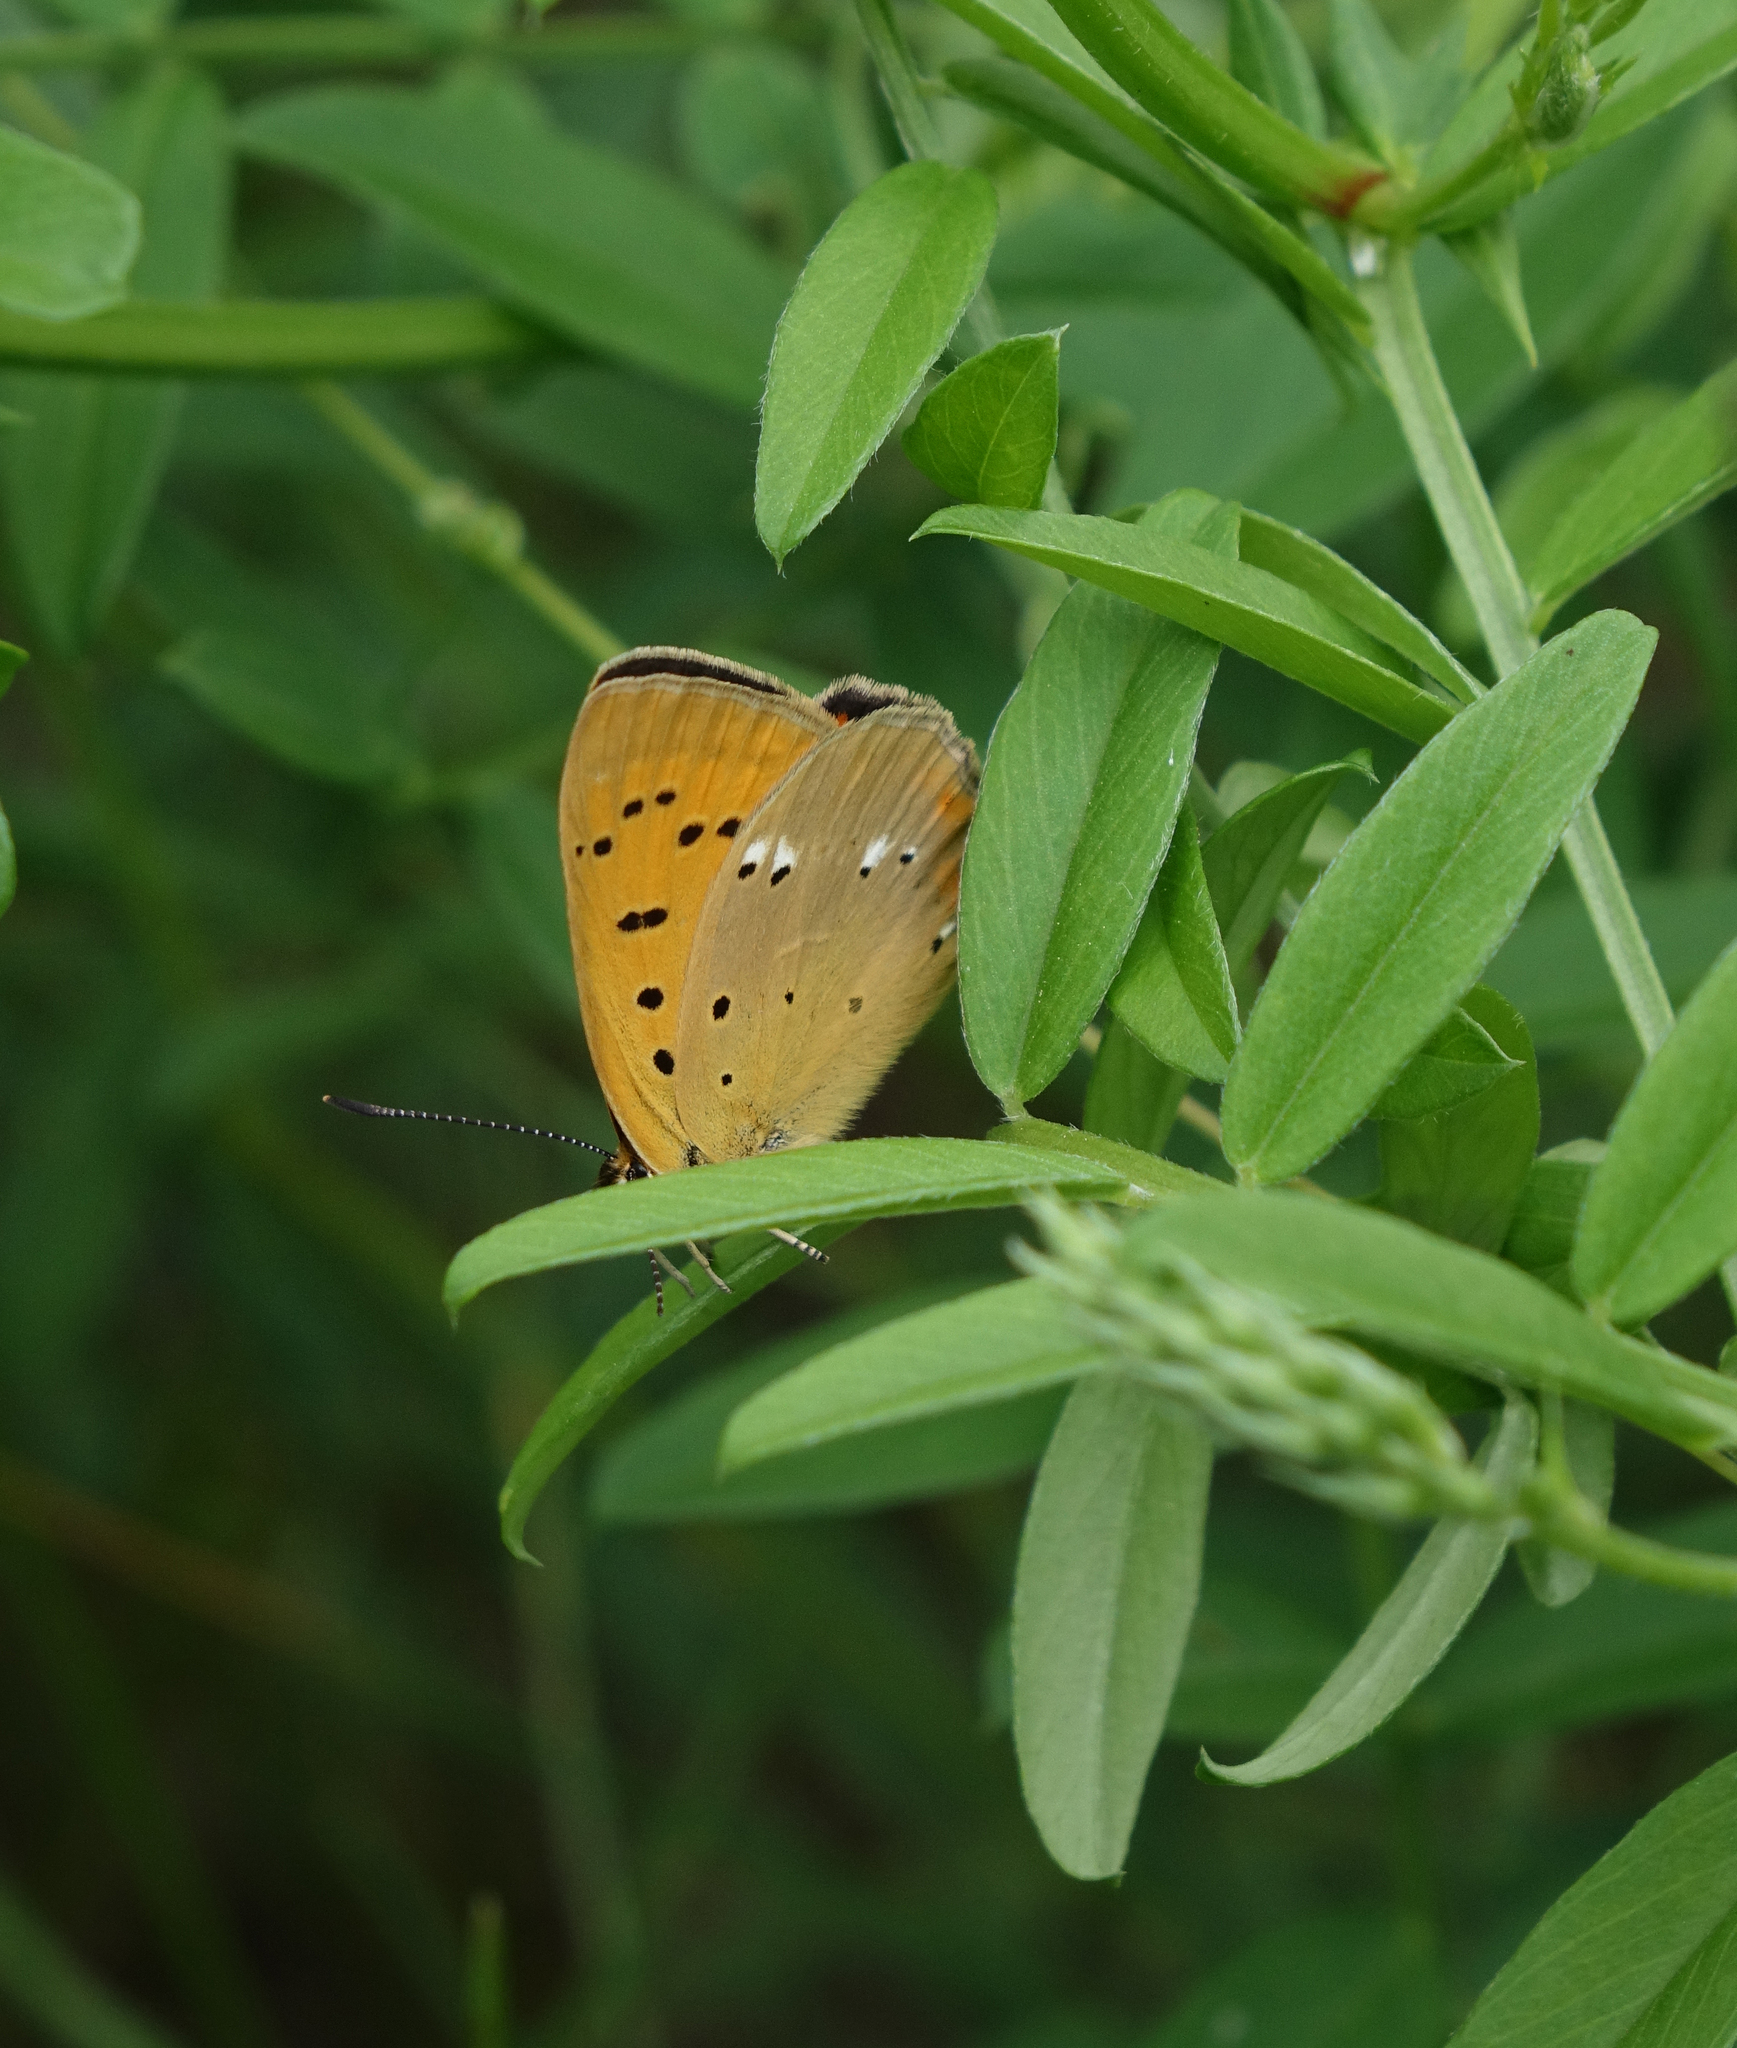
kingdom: Plantae
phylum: Tracheophyta
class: Magnoliopsida
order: Fabales
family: Fabaceae
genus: Vicia
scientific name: Vicia amoena
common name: Cheder ebs
